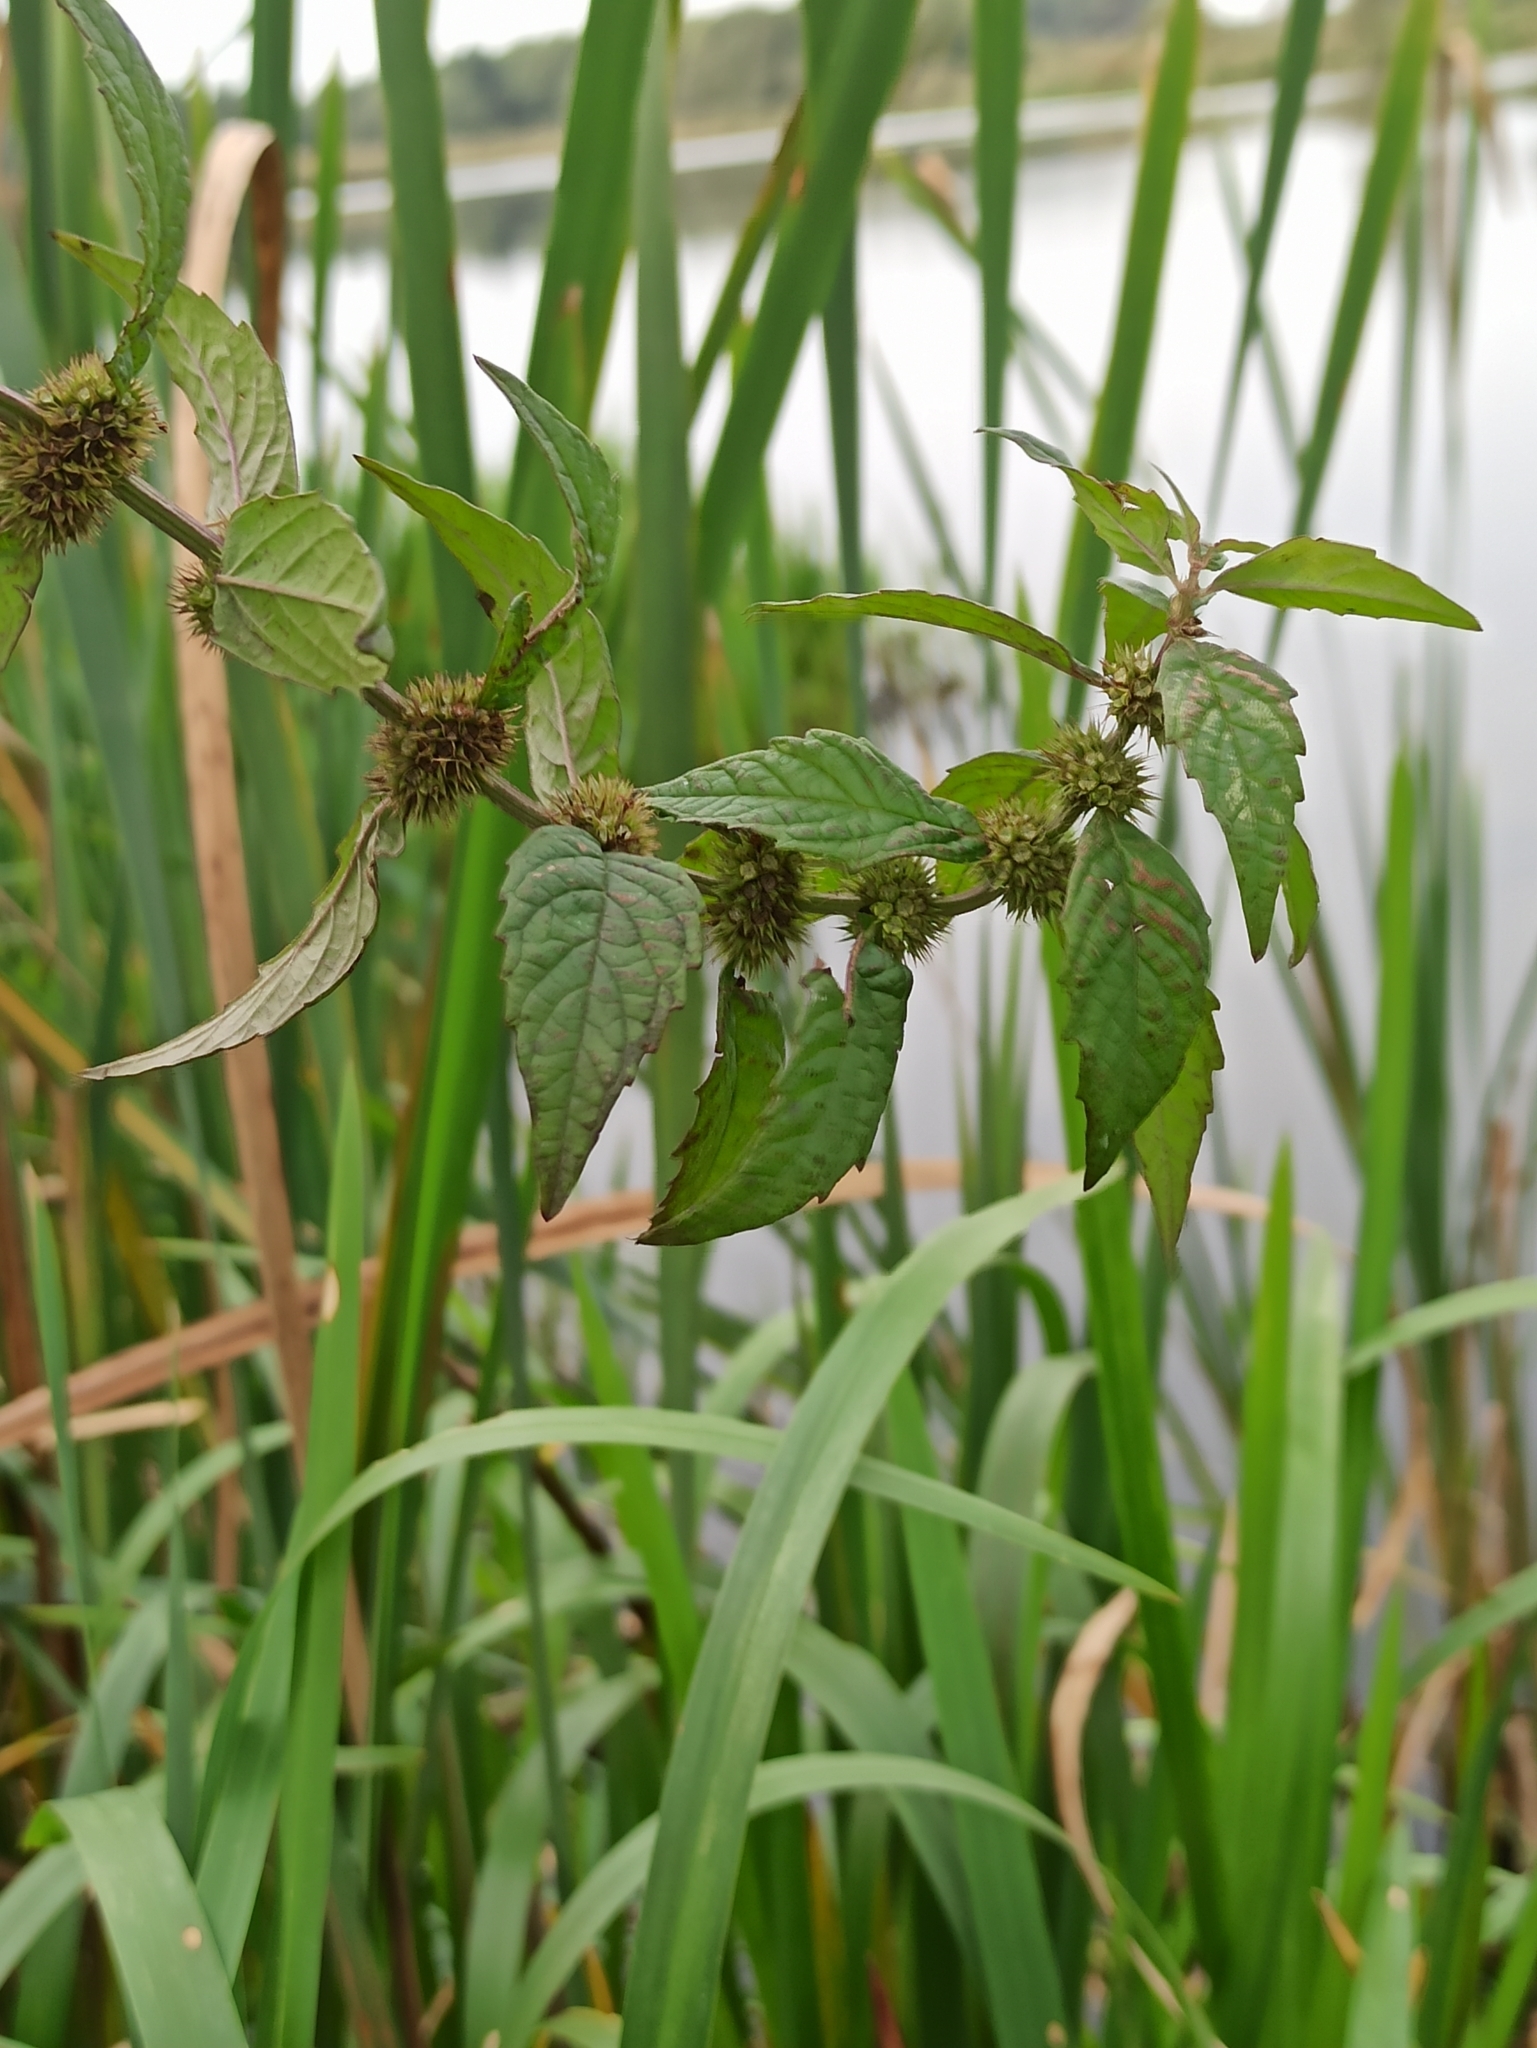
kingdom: Plantae
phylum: Tracheophyta
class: Magnoliopsida
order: Lamiales
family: Lamiaceae
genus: Lycopus
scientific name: Lycopus europaeus
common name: European bugleweed
